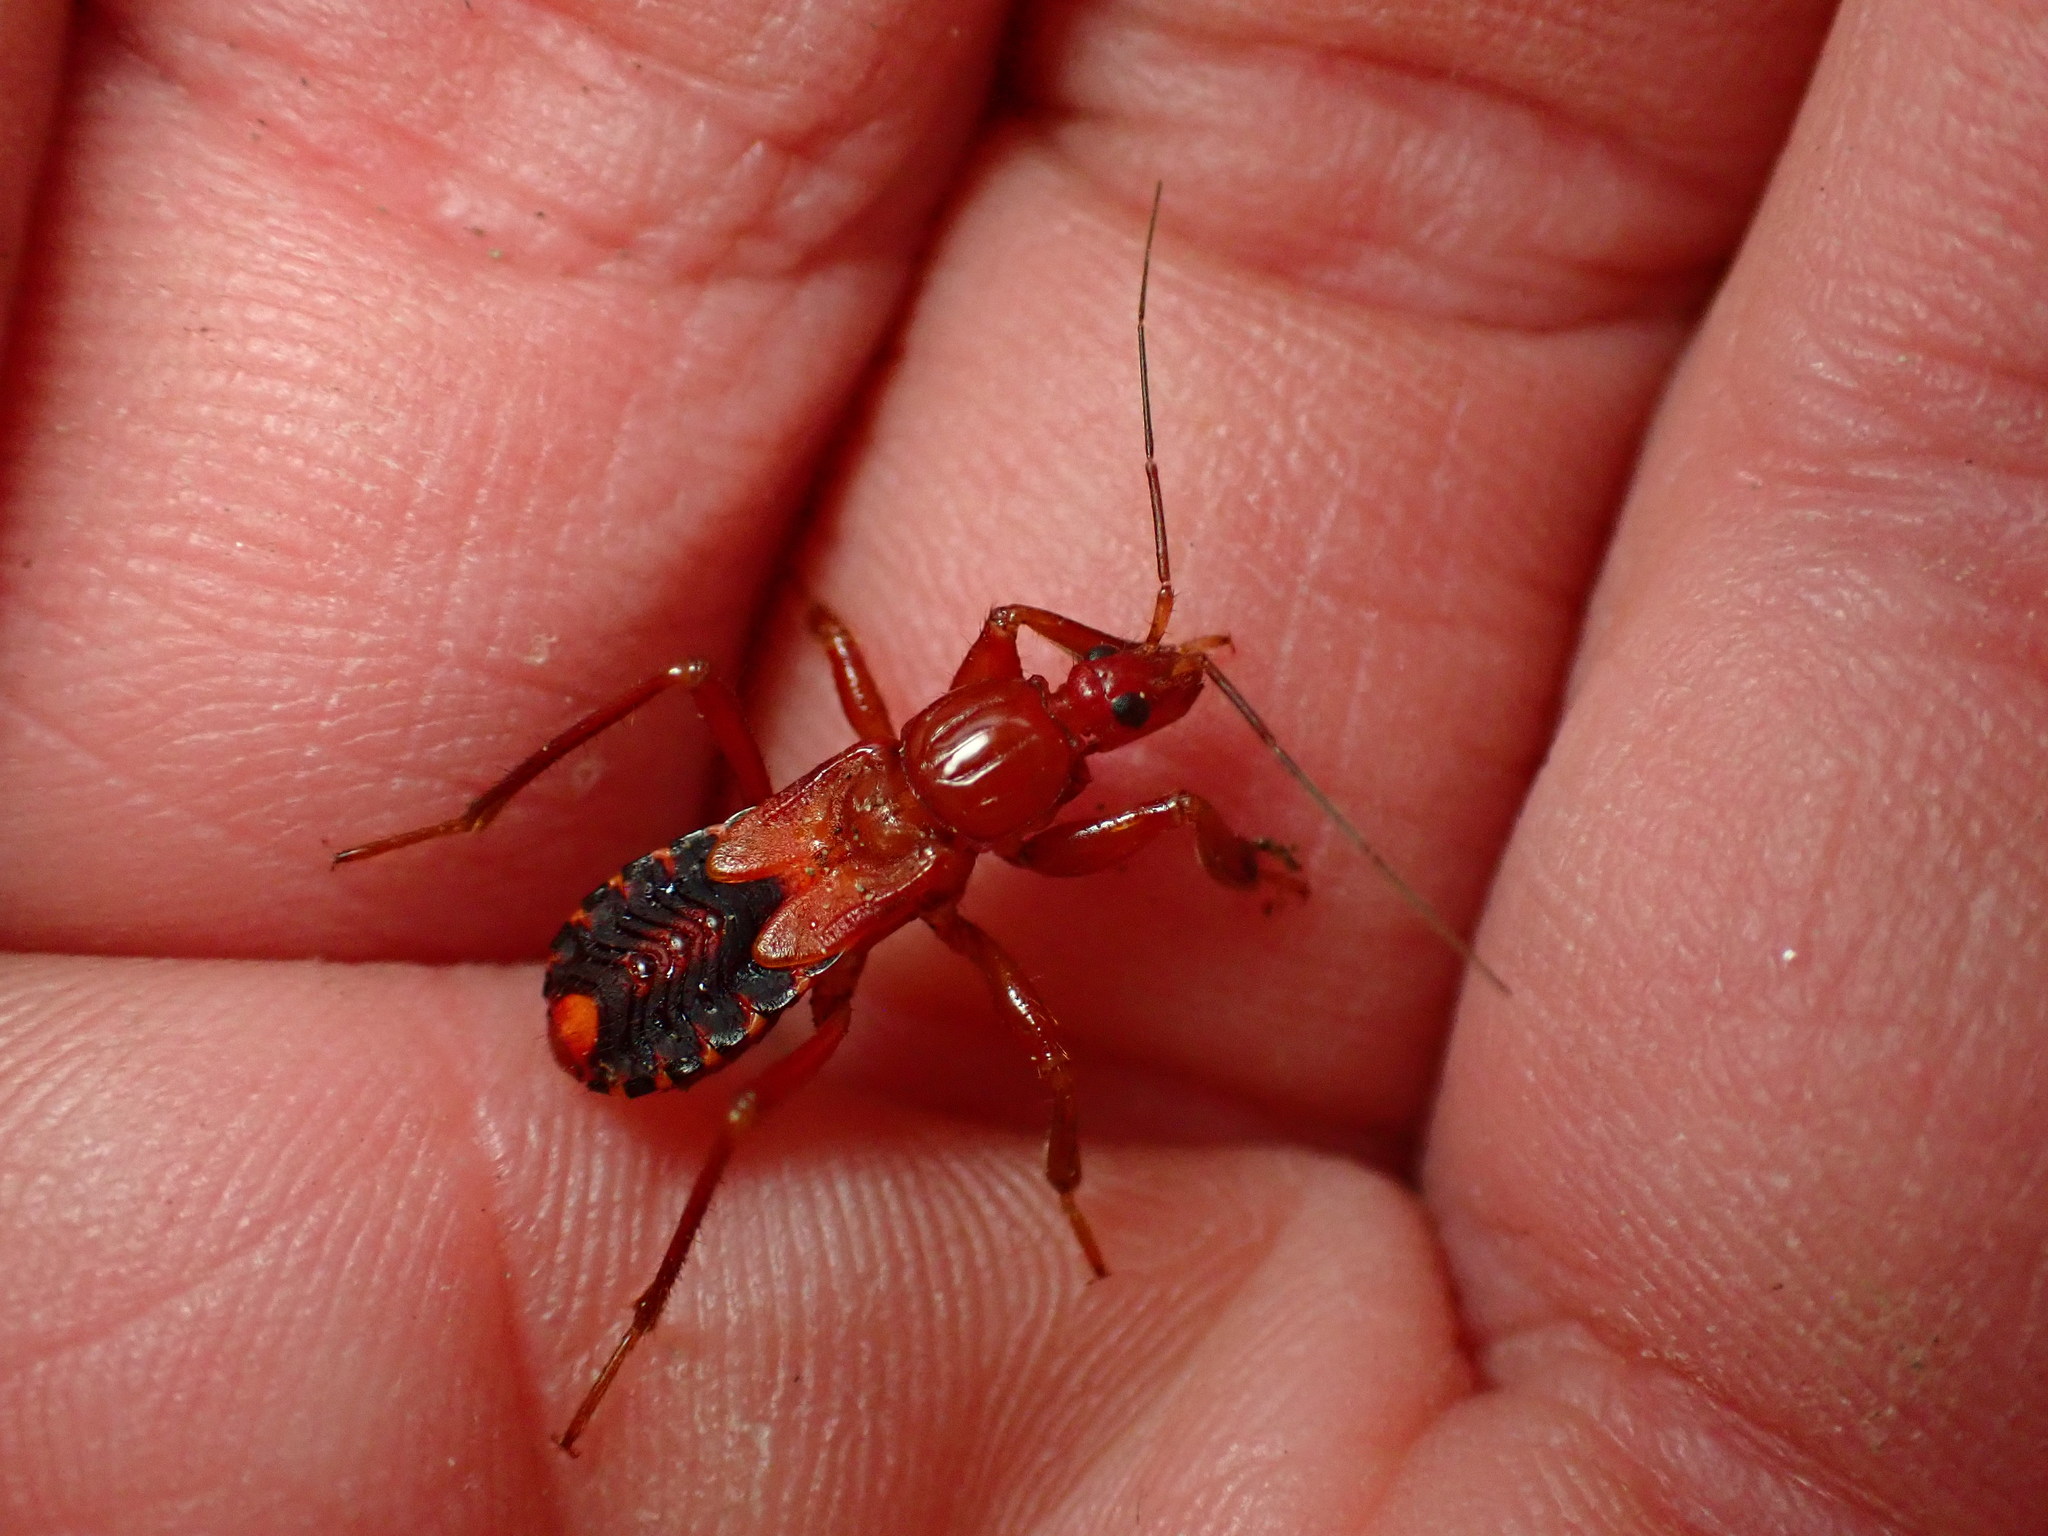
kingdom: Animalia
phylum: Arthropoda
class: Insecta
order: Hemiptera
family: Reduviidae
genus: Rasahus
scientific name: Rasahus thoracicus
